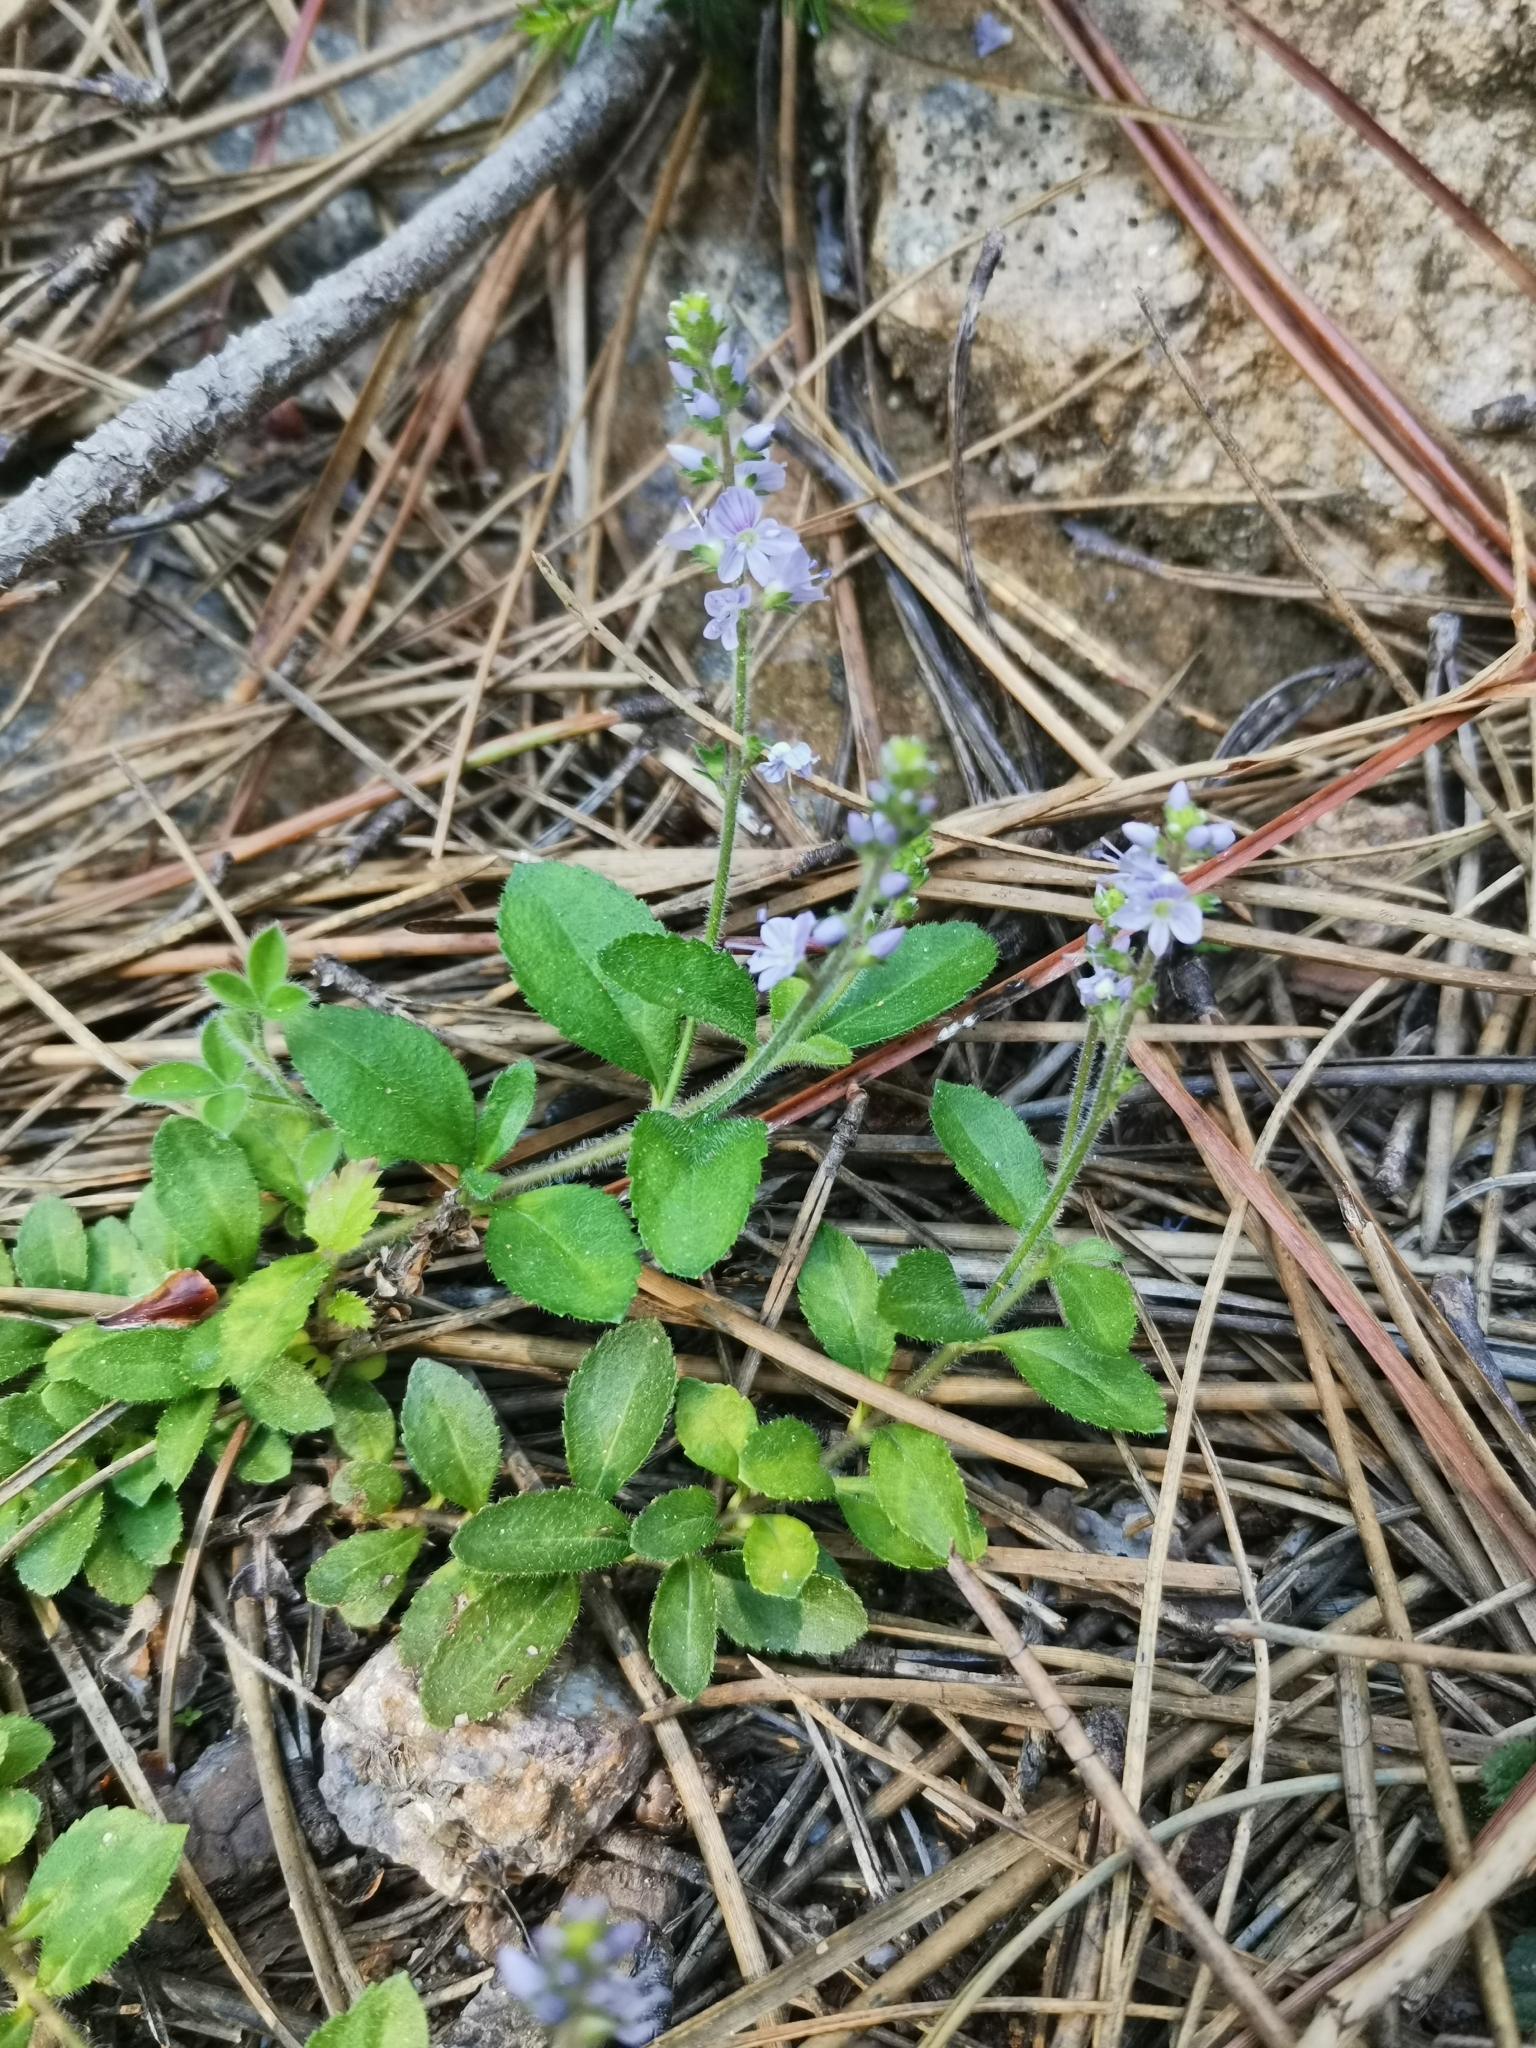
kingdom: Plantae
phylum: Tracheophyta
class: Magnoliopsida
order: Lamiales
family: Plantaginaceae
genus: Veronica
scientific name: Veronica officinalis
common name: Common speedwell
